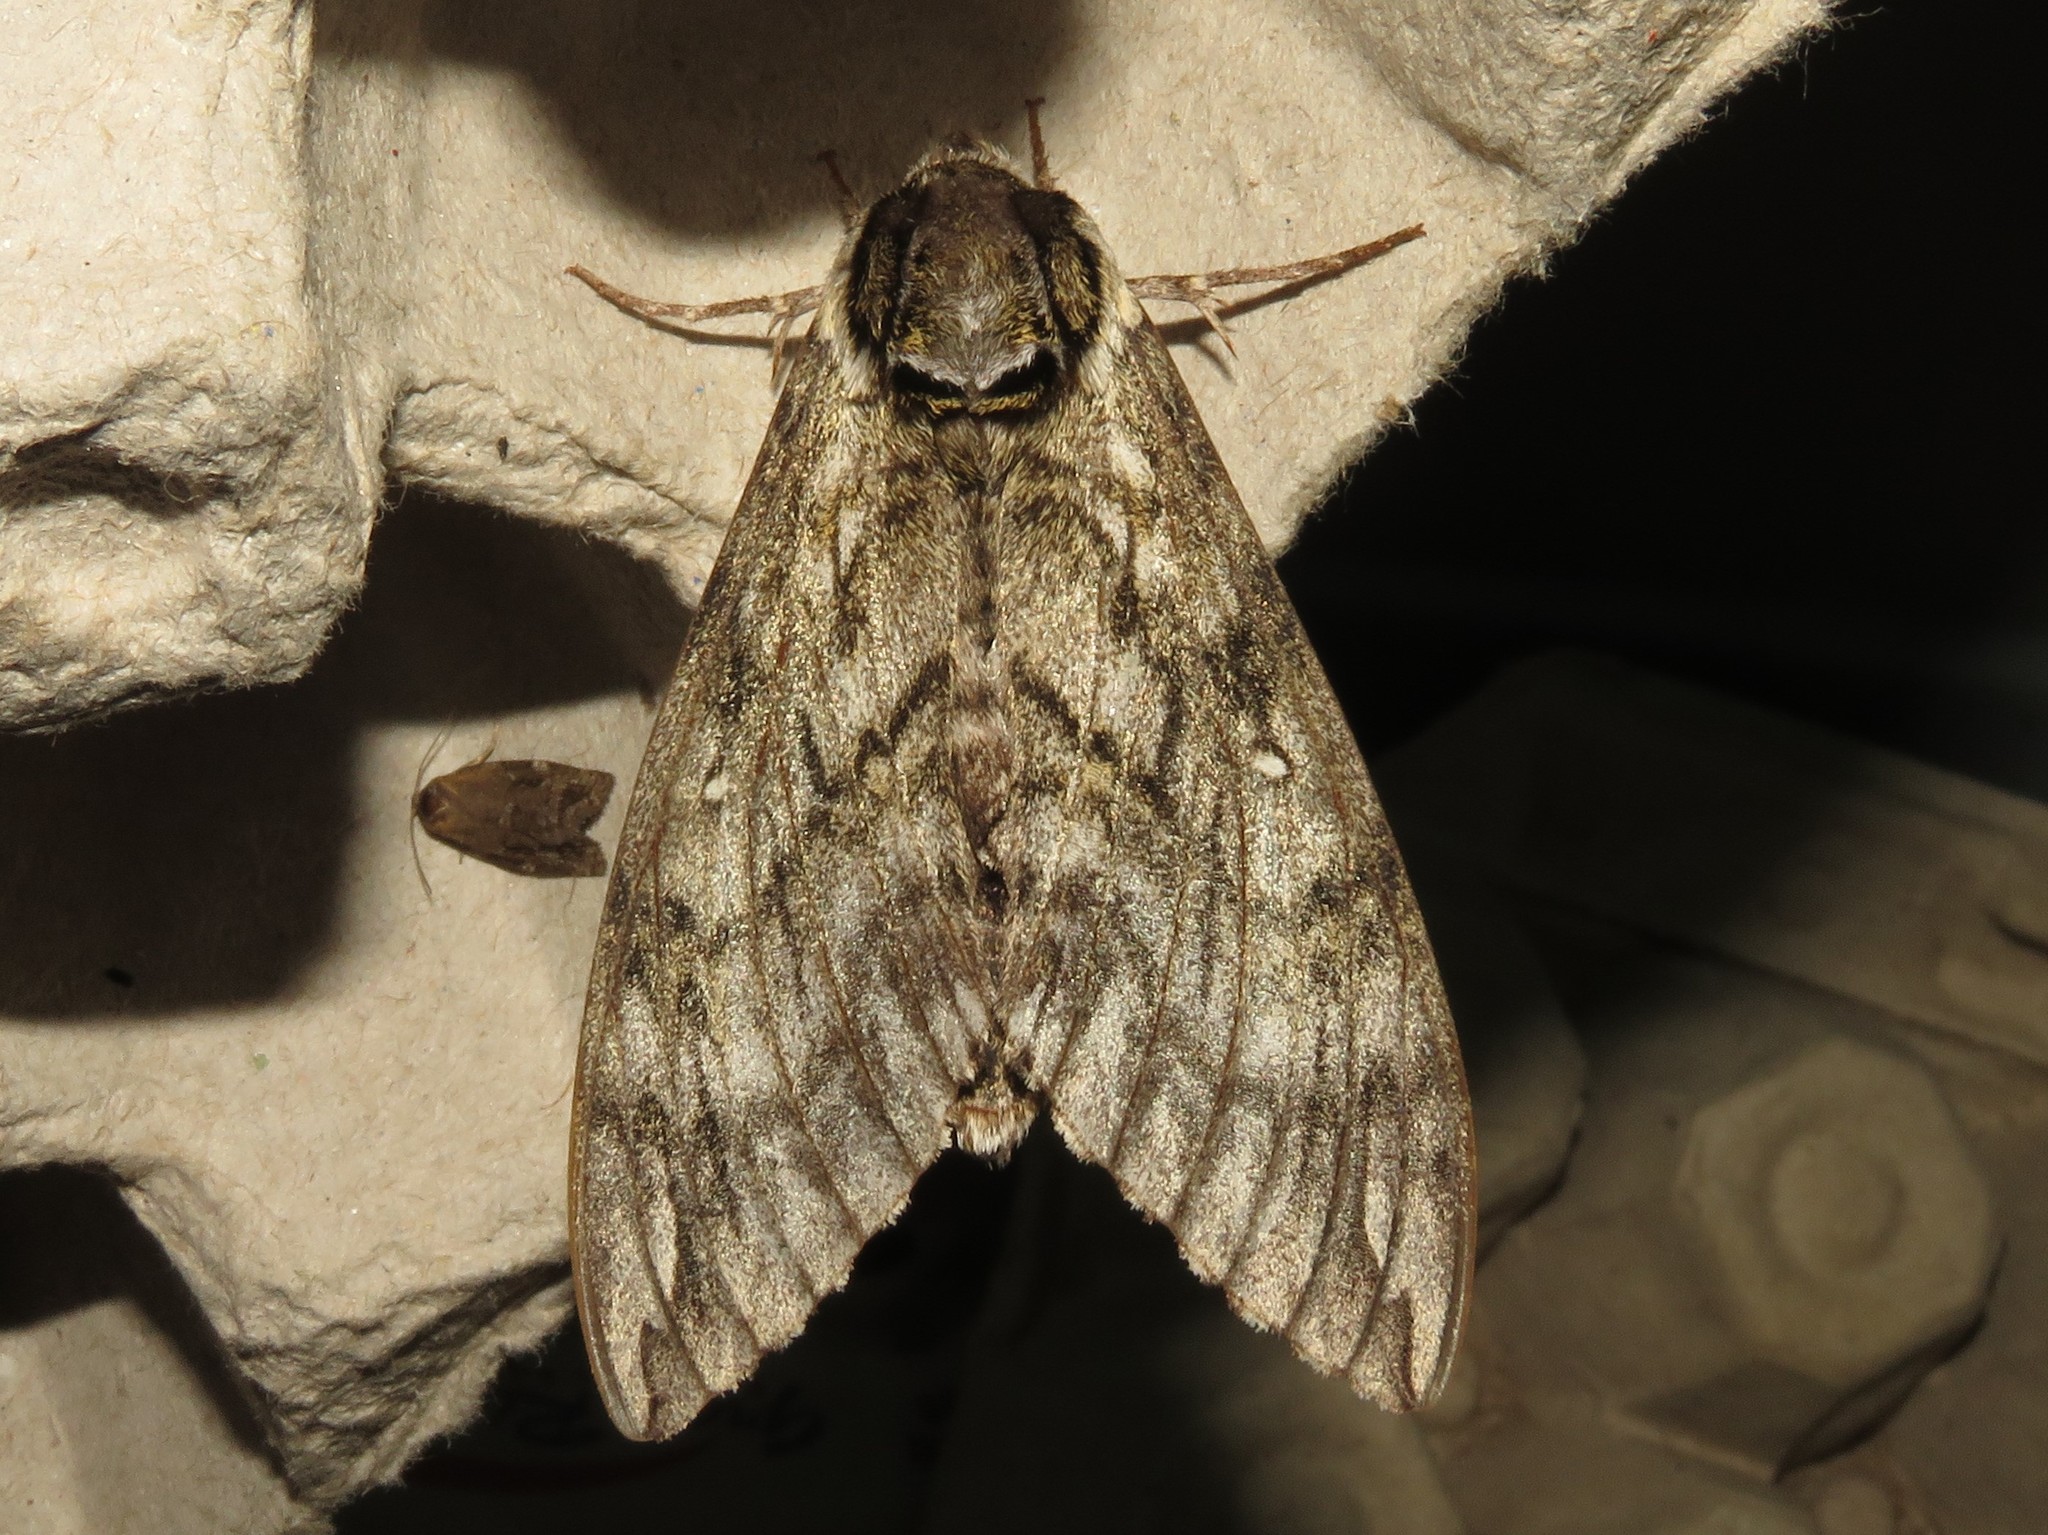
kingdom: Animalia
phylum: Arthropoda
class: Insecta
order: Lepidoptera
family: Sphingidae
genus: Ceratomia
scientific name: Ceratomia undulosa
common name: Waved sphinx
